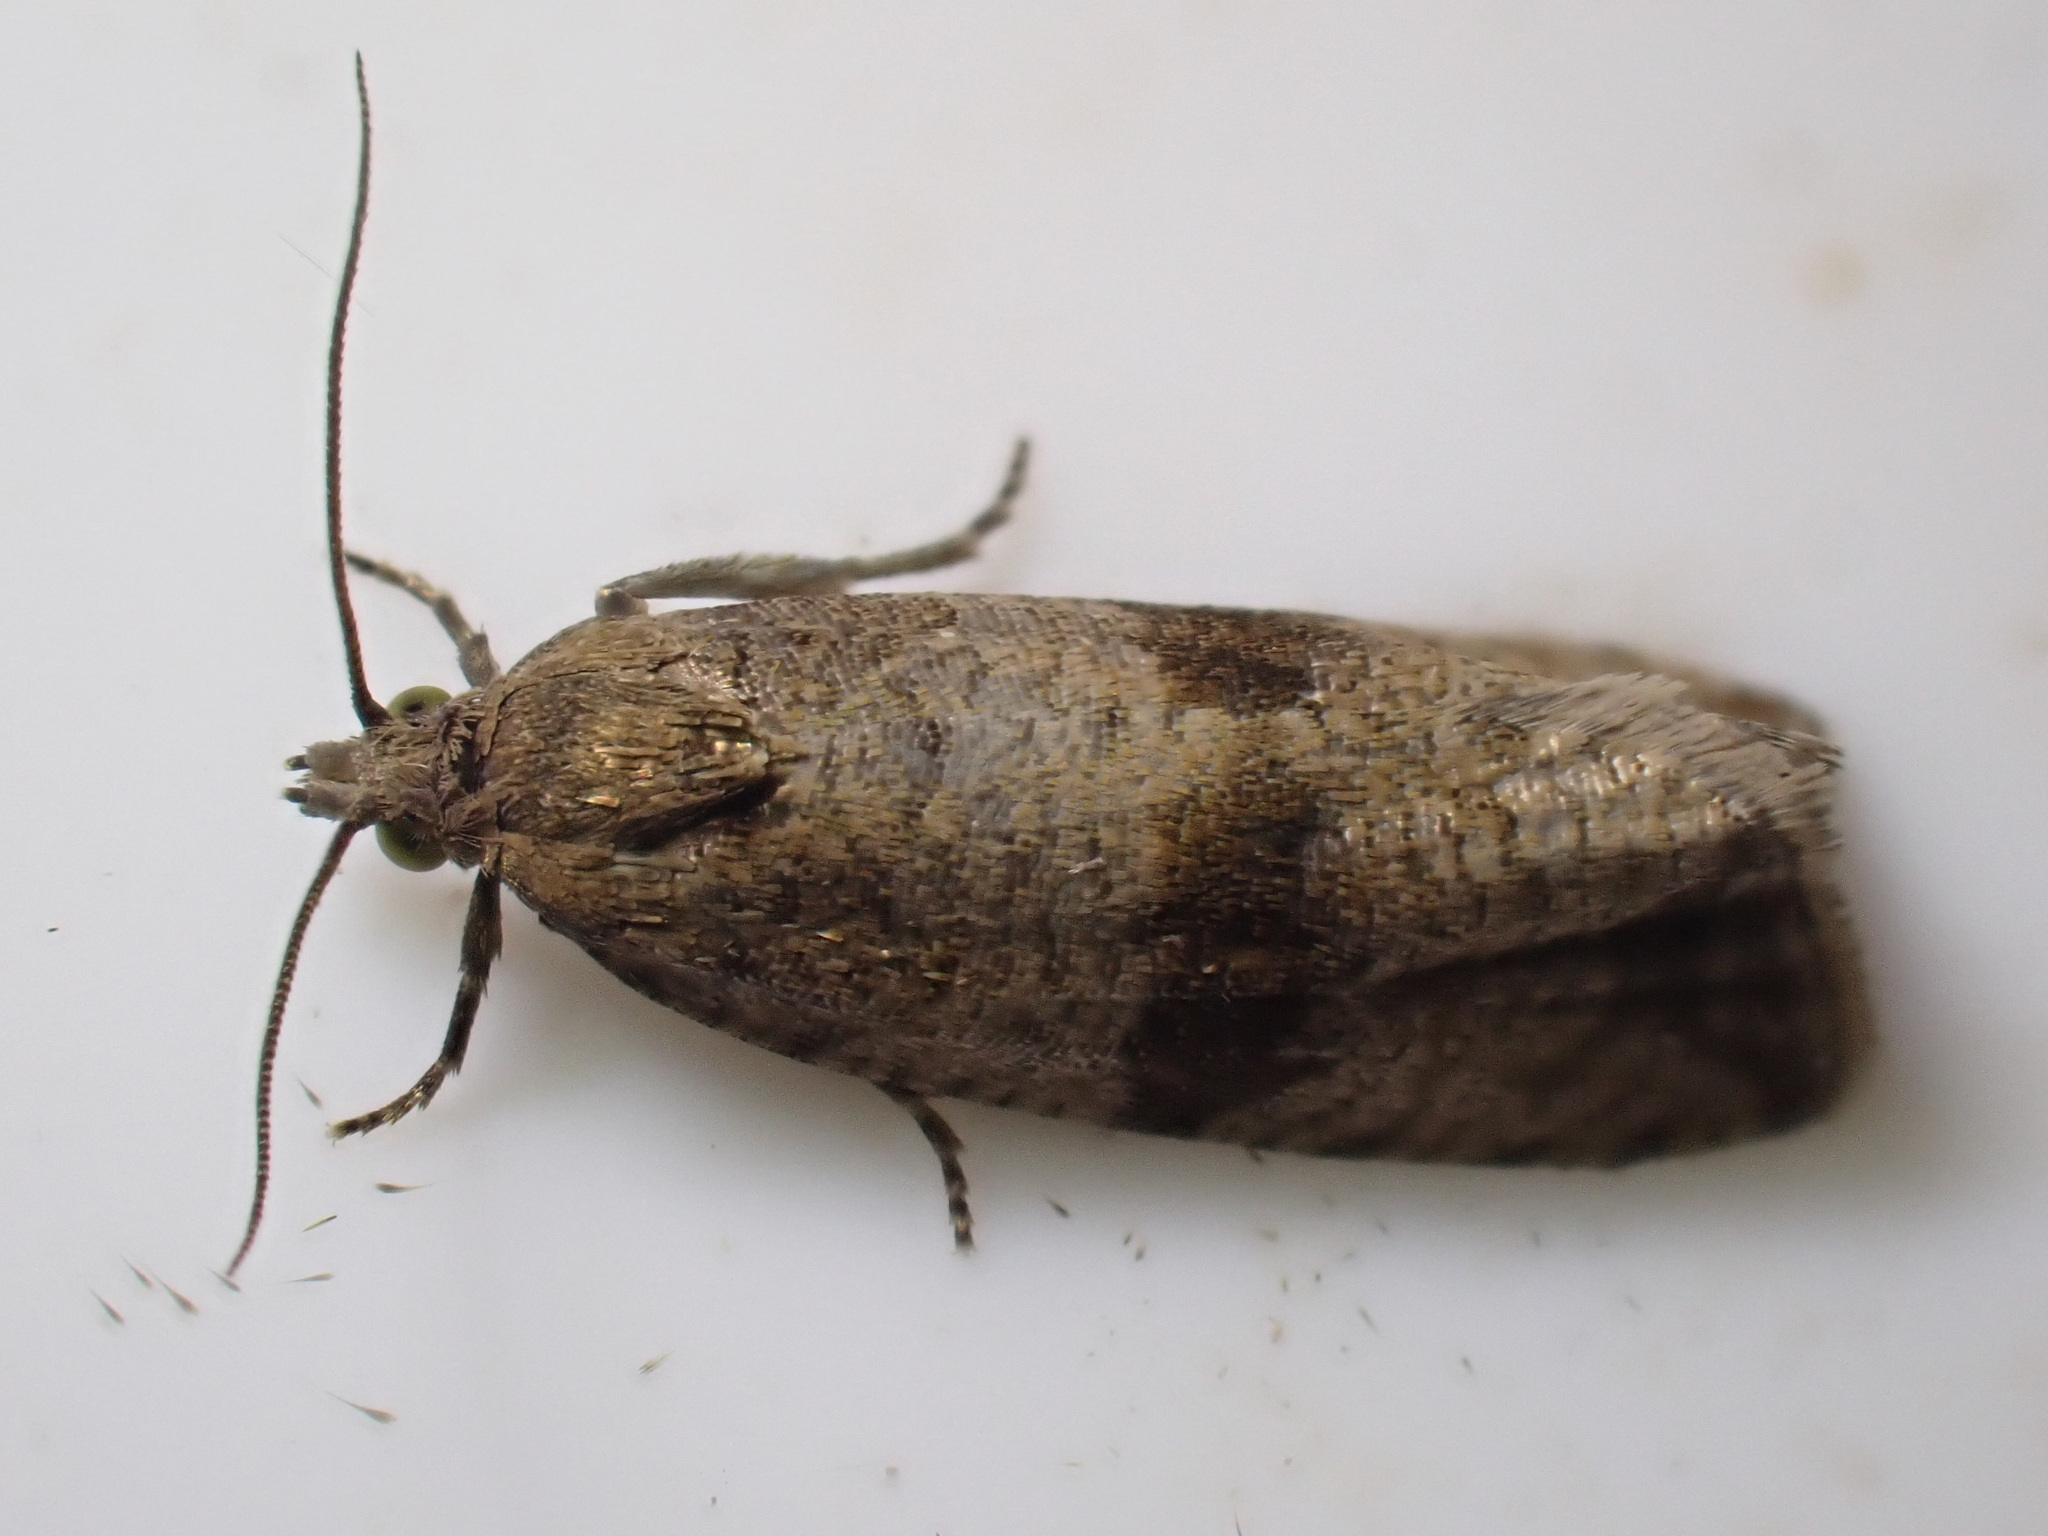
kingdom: Animalia
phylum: Arthropoda
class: Insecta
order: Lepidoptera
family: Tortricidae
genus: Celypha
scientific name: Celypha striana
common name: Barred marble
